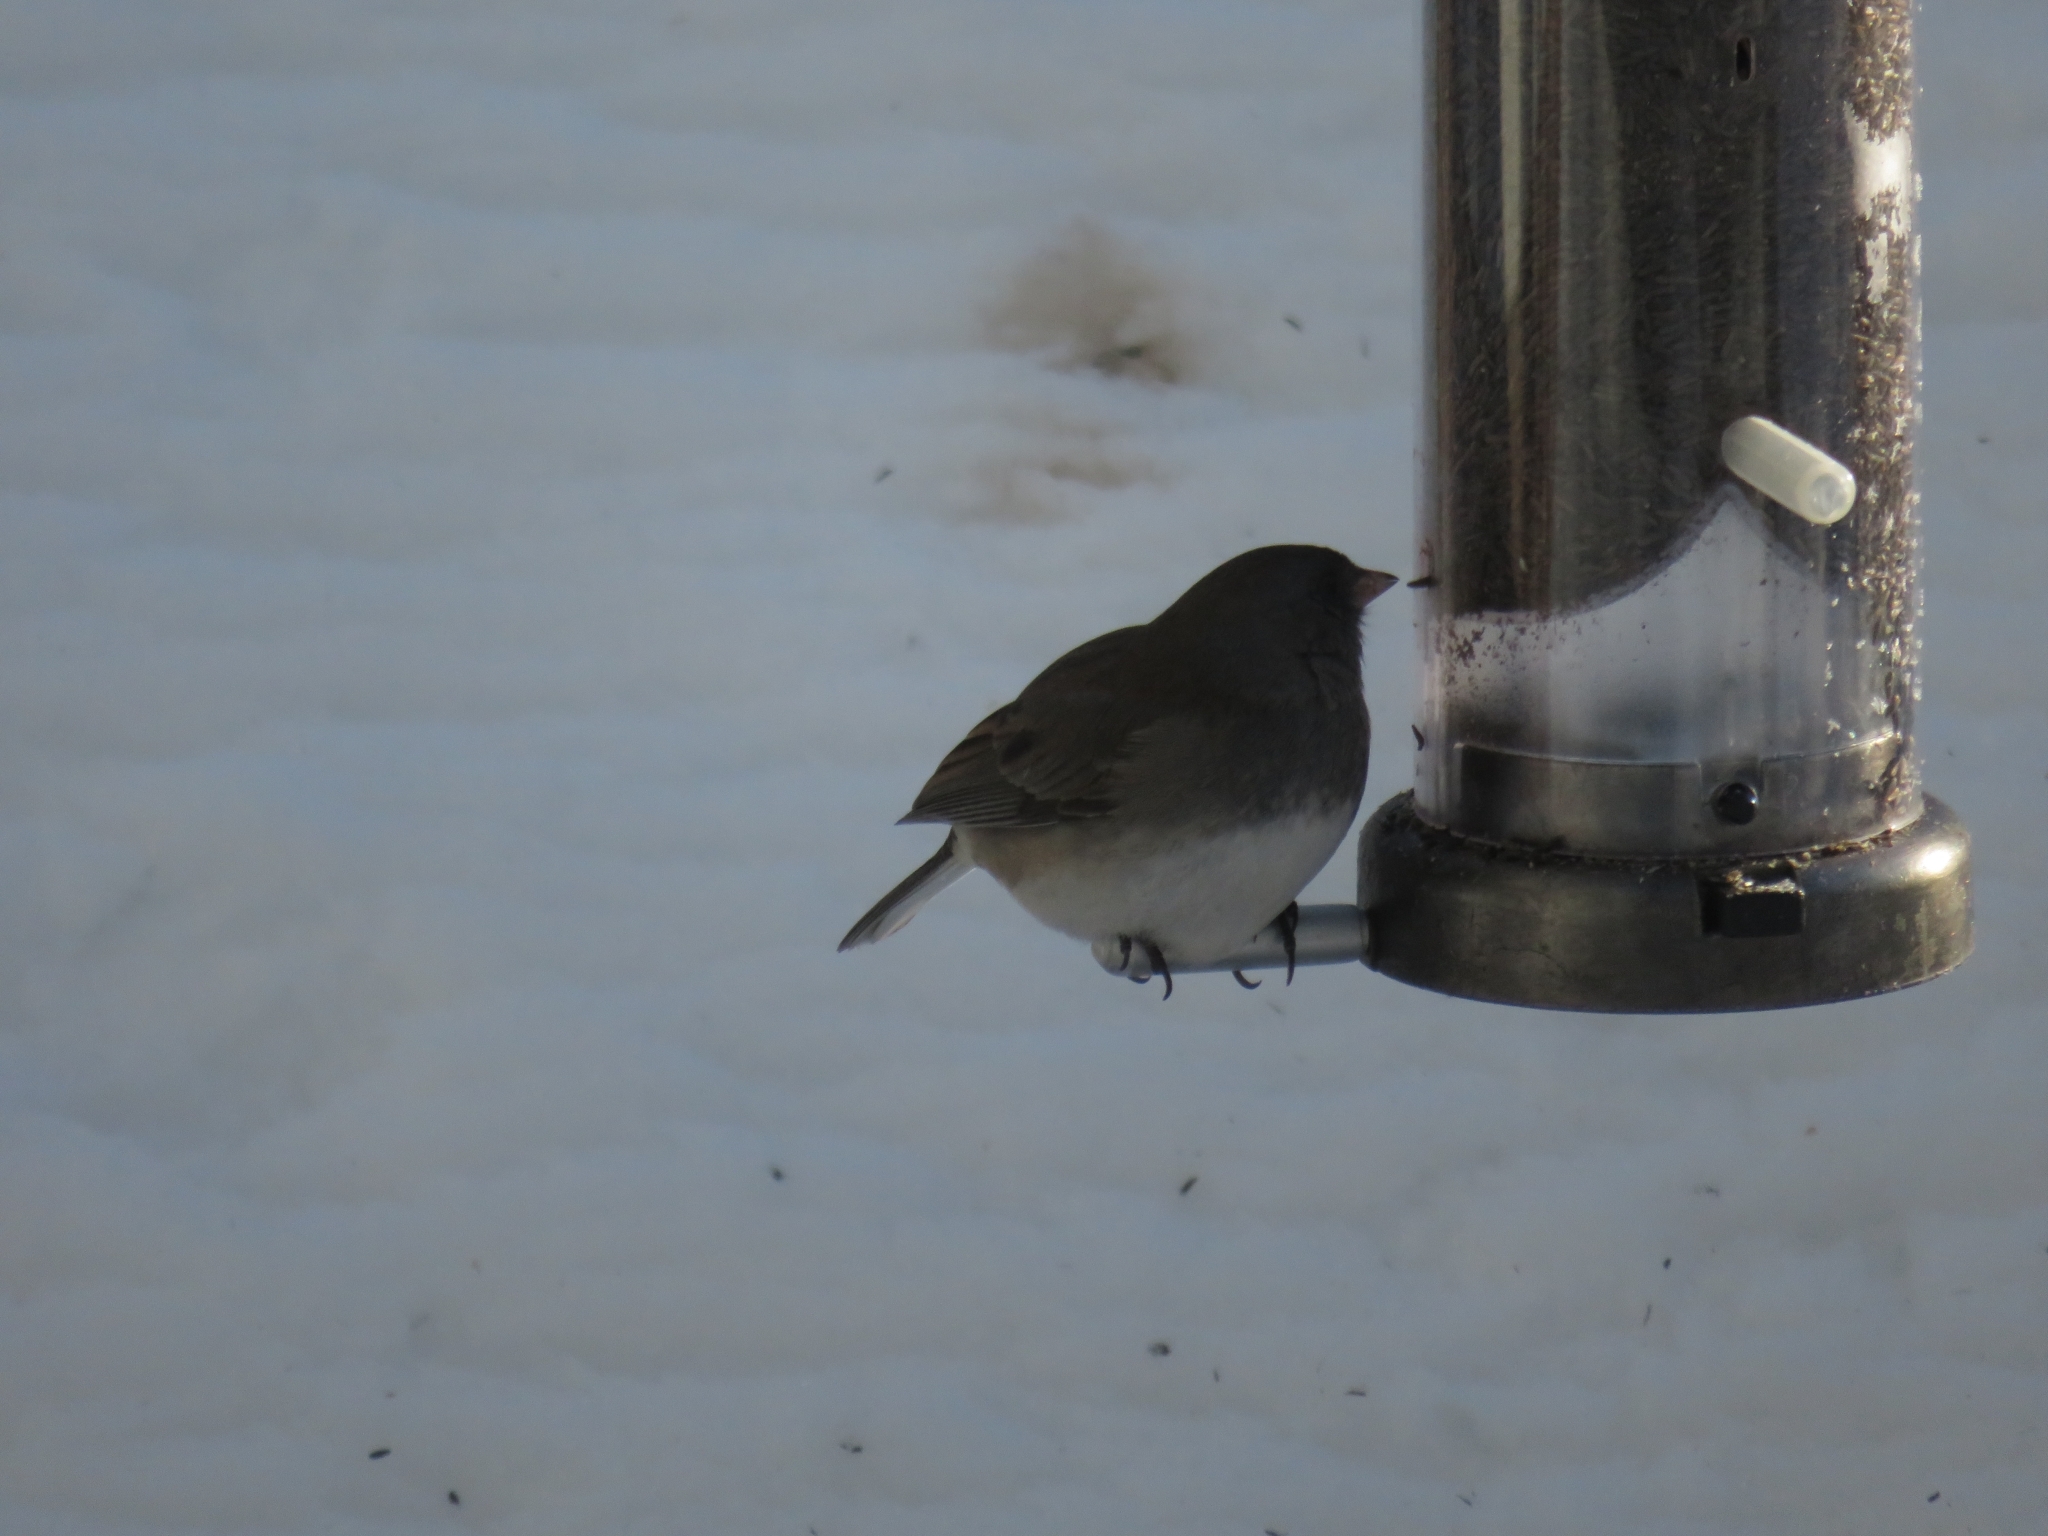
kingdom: Animalia
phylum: Chordata
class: Aves
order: Passeriformes
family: Passerellidae
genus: Junco
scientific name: Junco hyemalis
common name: Dark-eyed junco
